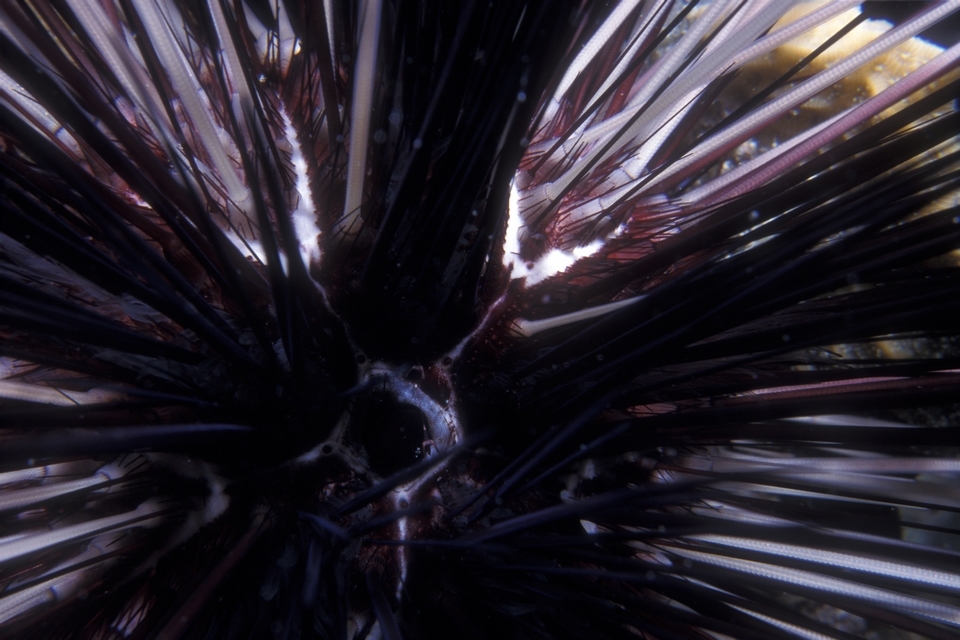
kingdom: Animalia
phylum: Echinodermata
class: Echinoidea
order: Diadematoida
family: Diadematidae
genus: Diadema
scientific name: Diadema antillarum
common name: Spiny urchin
